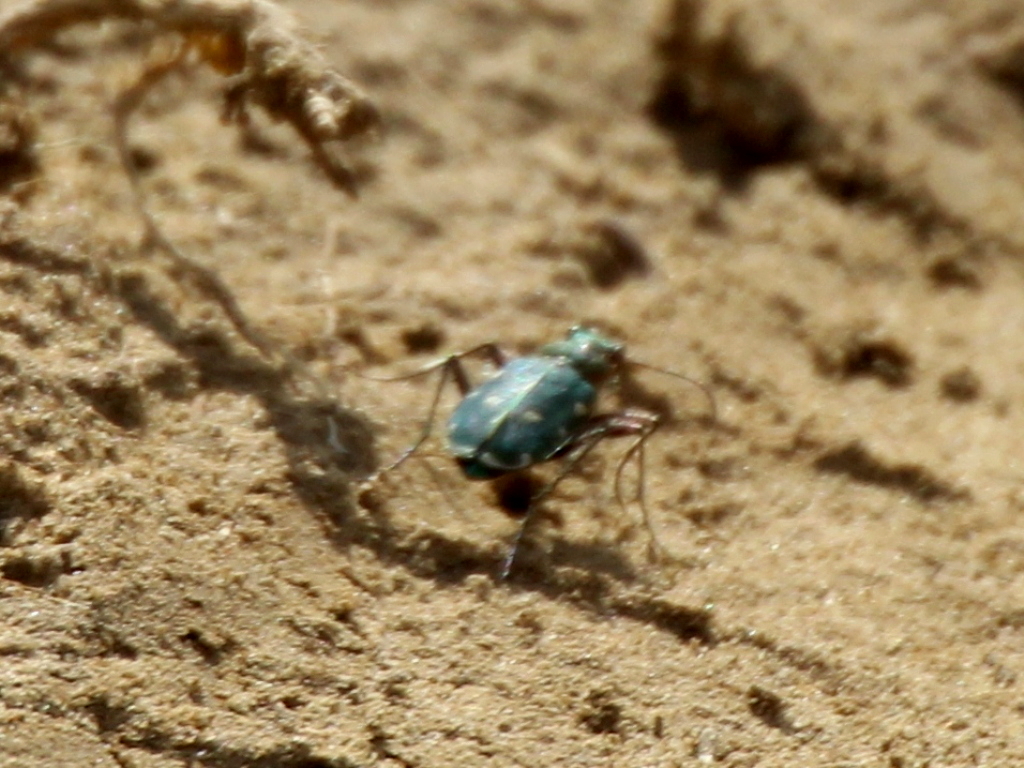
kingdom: Animalia
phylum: Arthropoda
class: Insecta
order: Coleoptera
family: Carabidae
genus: Cicindela
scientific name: Cicindela campestris
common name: Common tiger beetle
